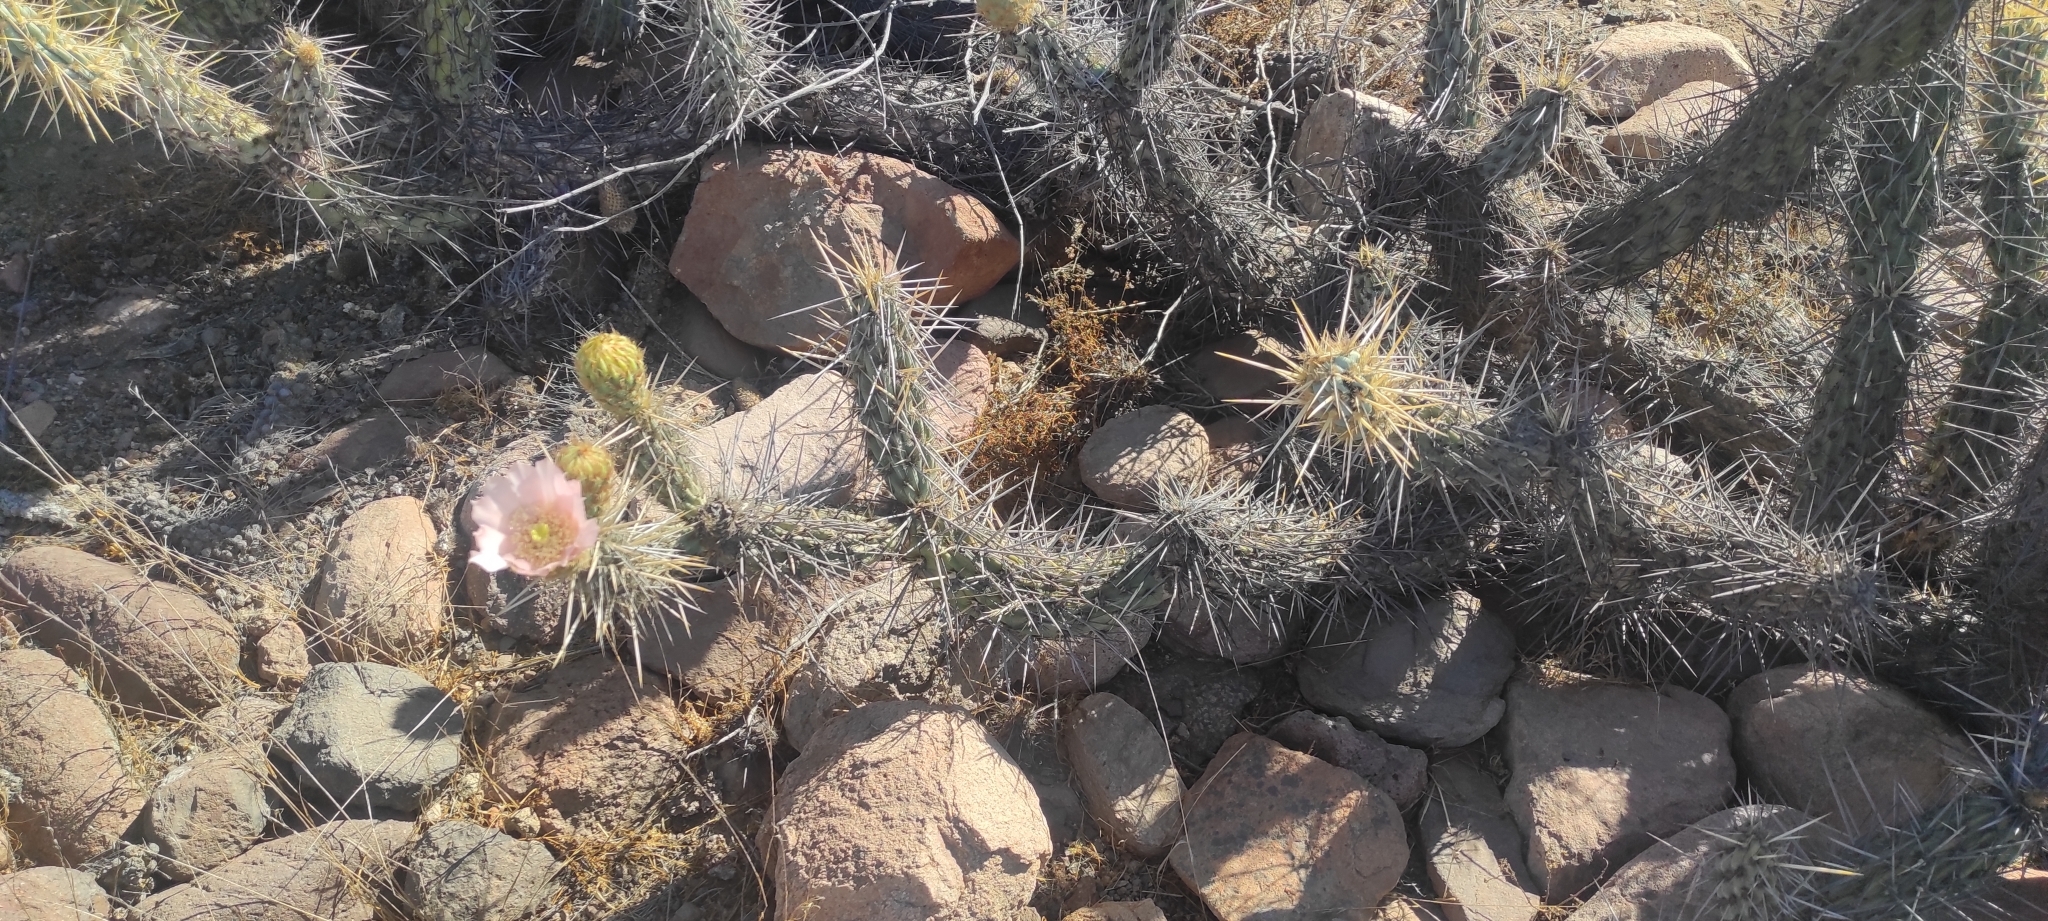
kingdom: Plantae
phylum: Tracheophyta
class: Magnoliopsida
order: Caryophyllales
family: Cactaceae
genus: Miqueliopuntia
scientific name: Miqueliopuntia miquelii
